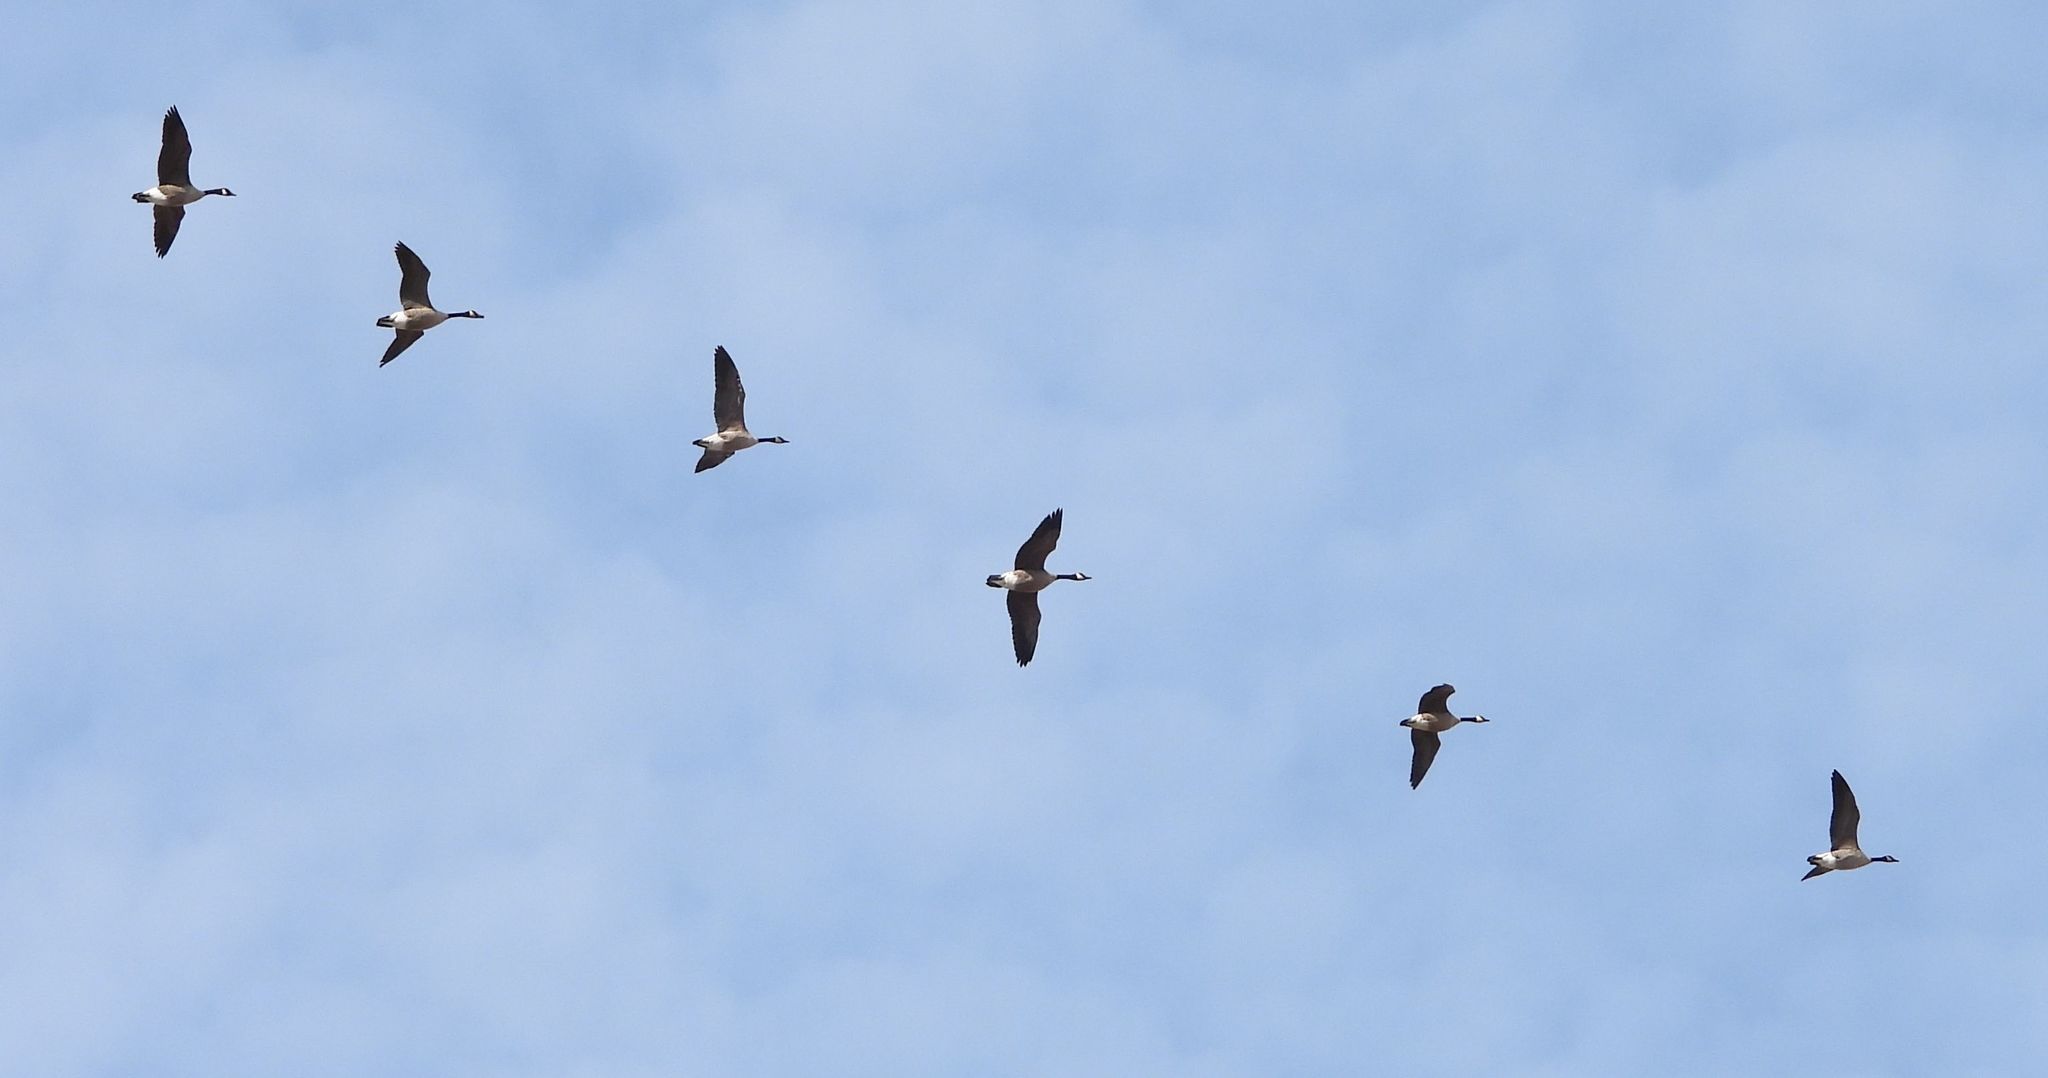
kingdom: Animalia
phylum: Chordata
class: Aves
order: Anseriformes
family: Anatidae
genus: Branta
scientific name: Branta canadensis
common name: Canada goose
